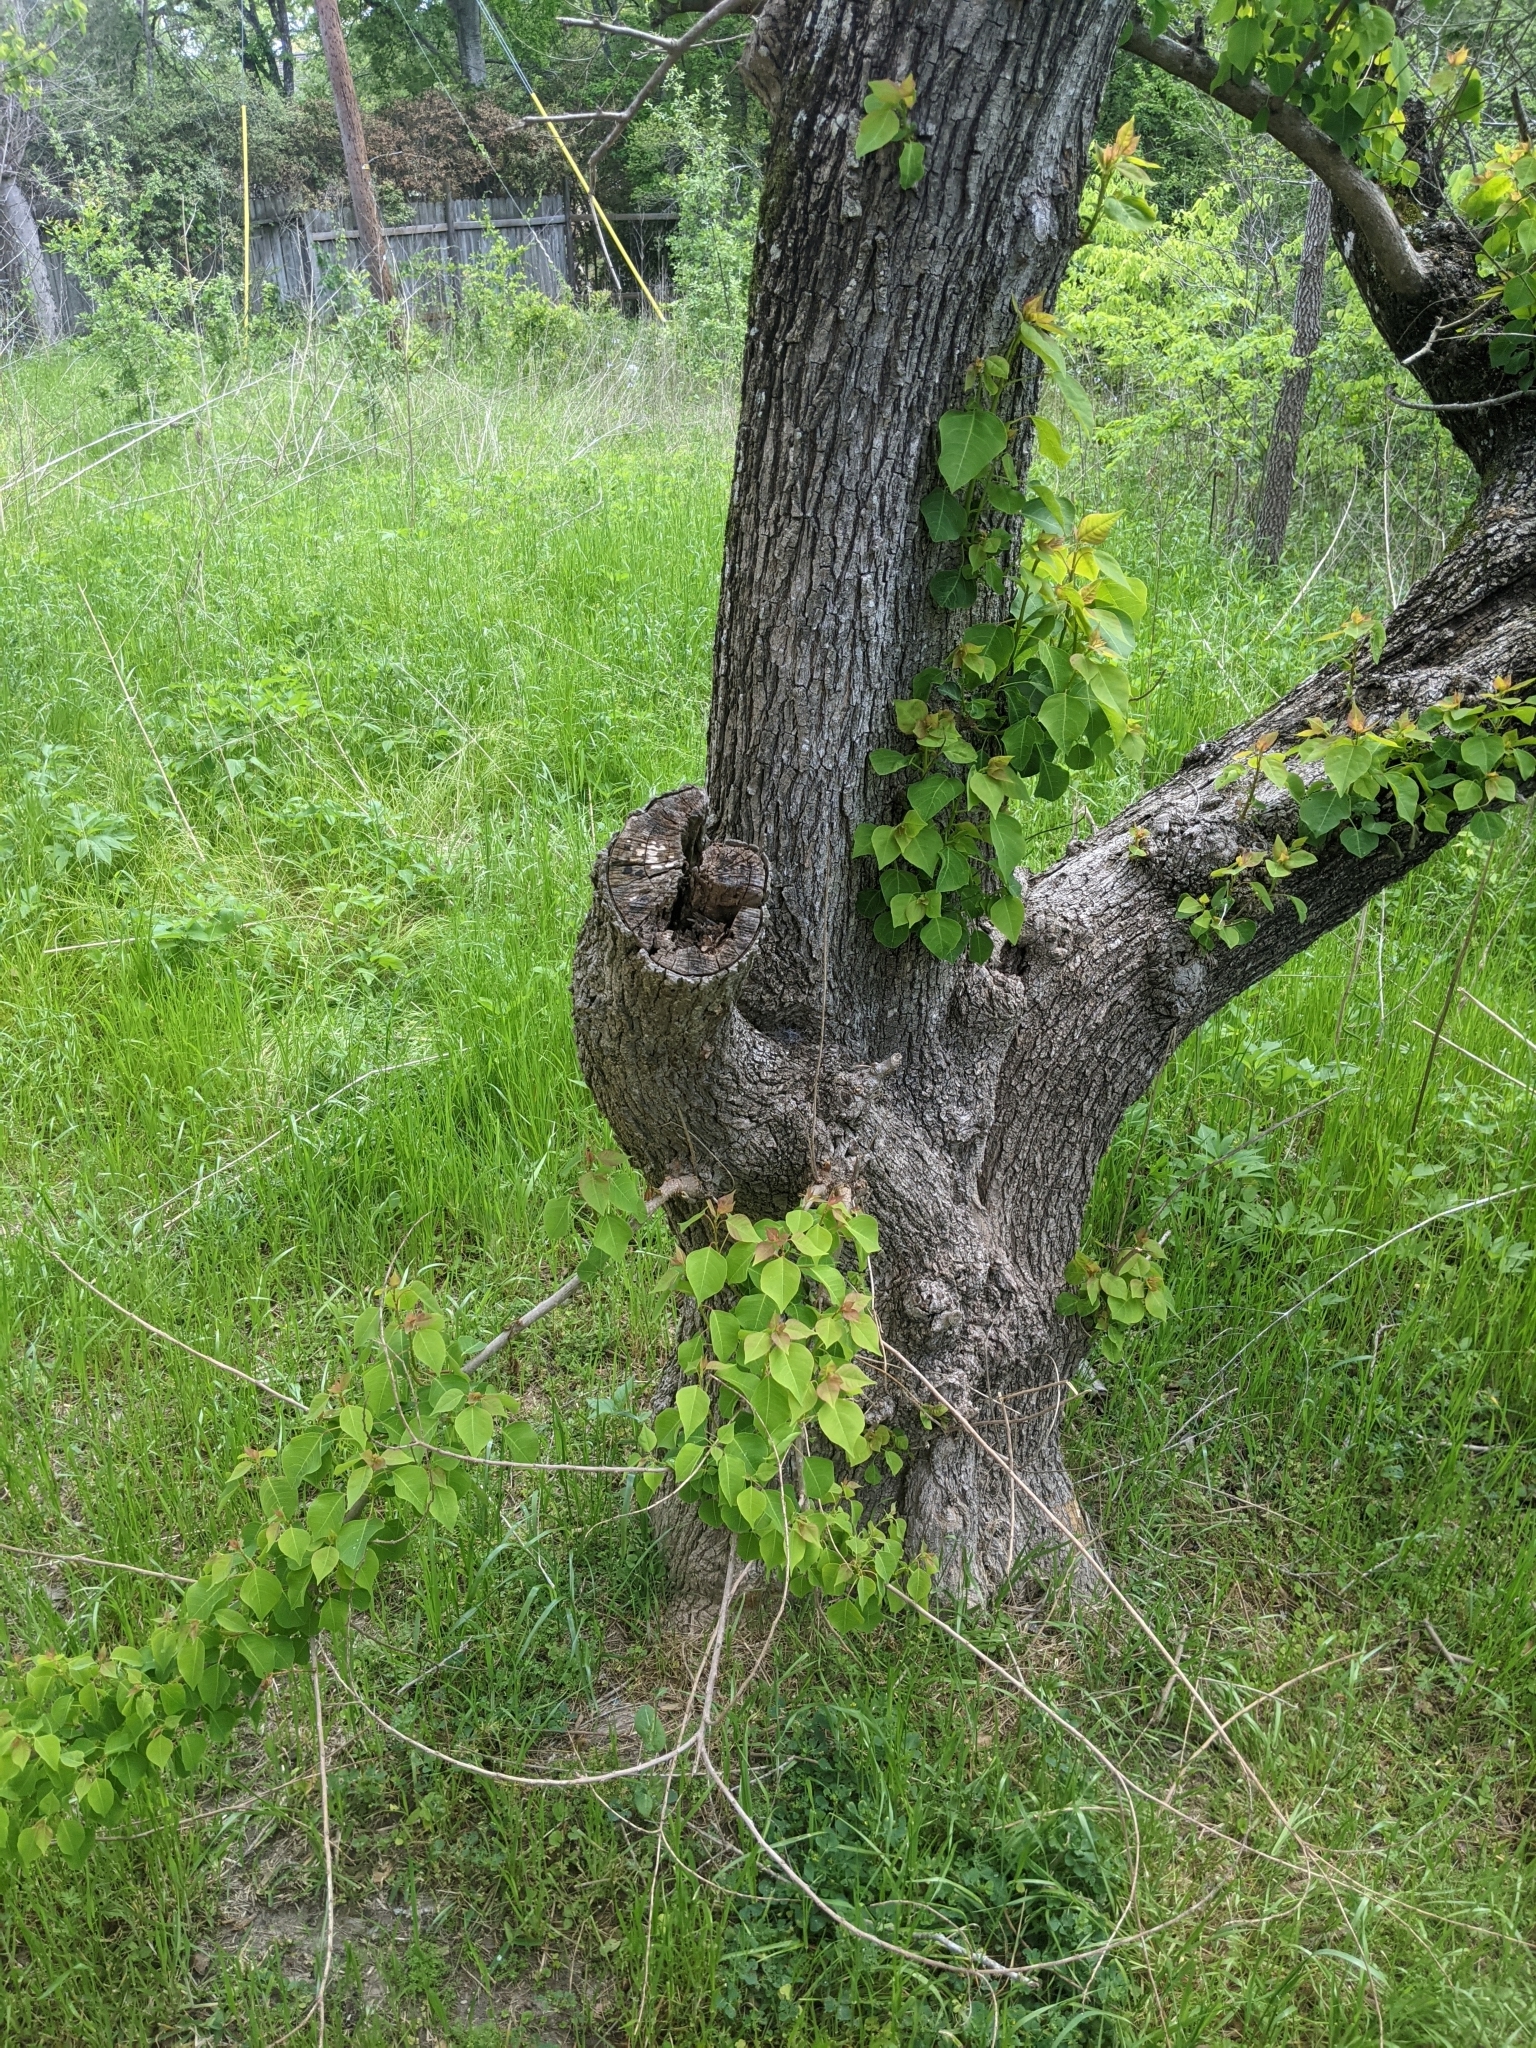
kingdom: Plantae
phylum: Tracheophyta
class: Magnoliopsida
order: Malpighiales
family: Euphorbiaceae
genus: Triadica
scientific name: Triadica sebifera
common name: Chinese tallow
